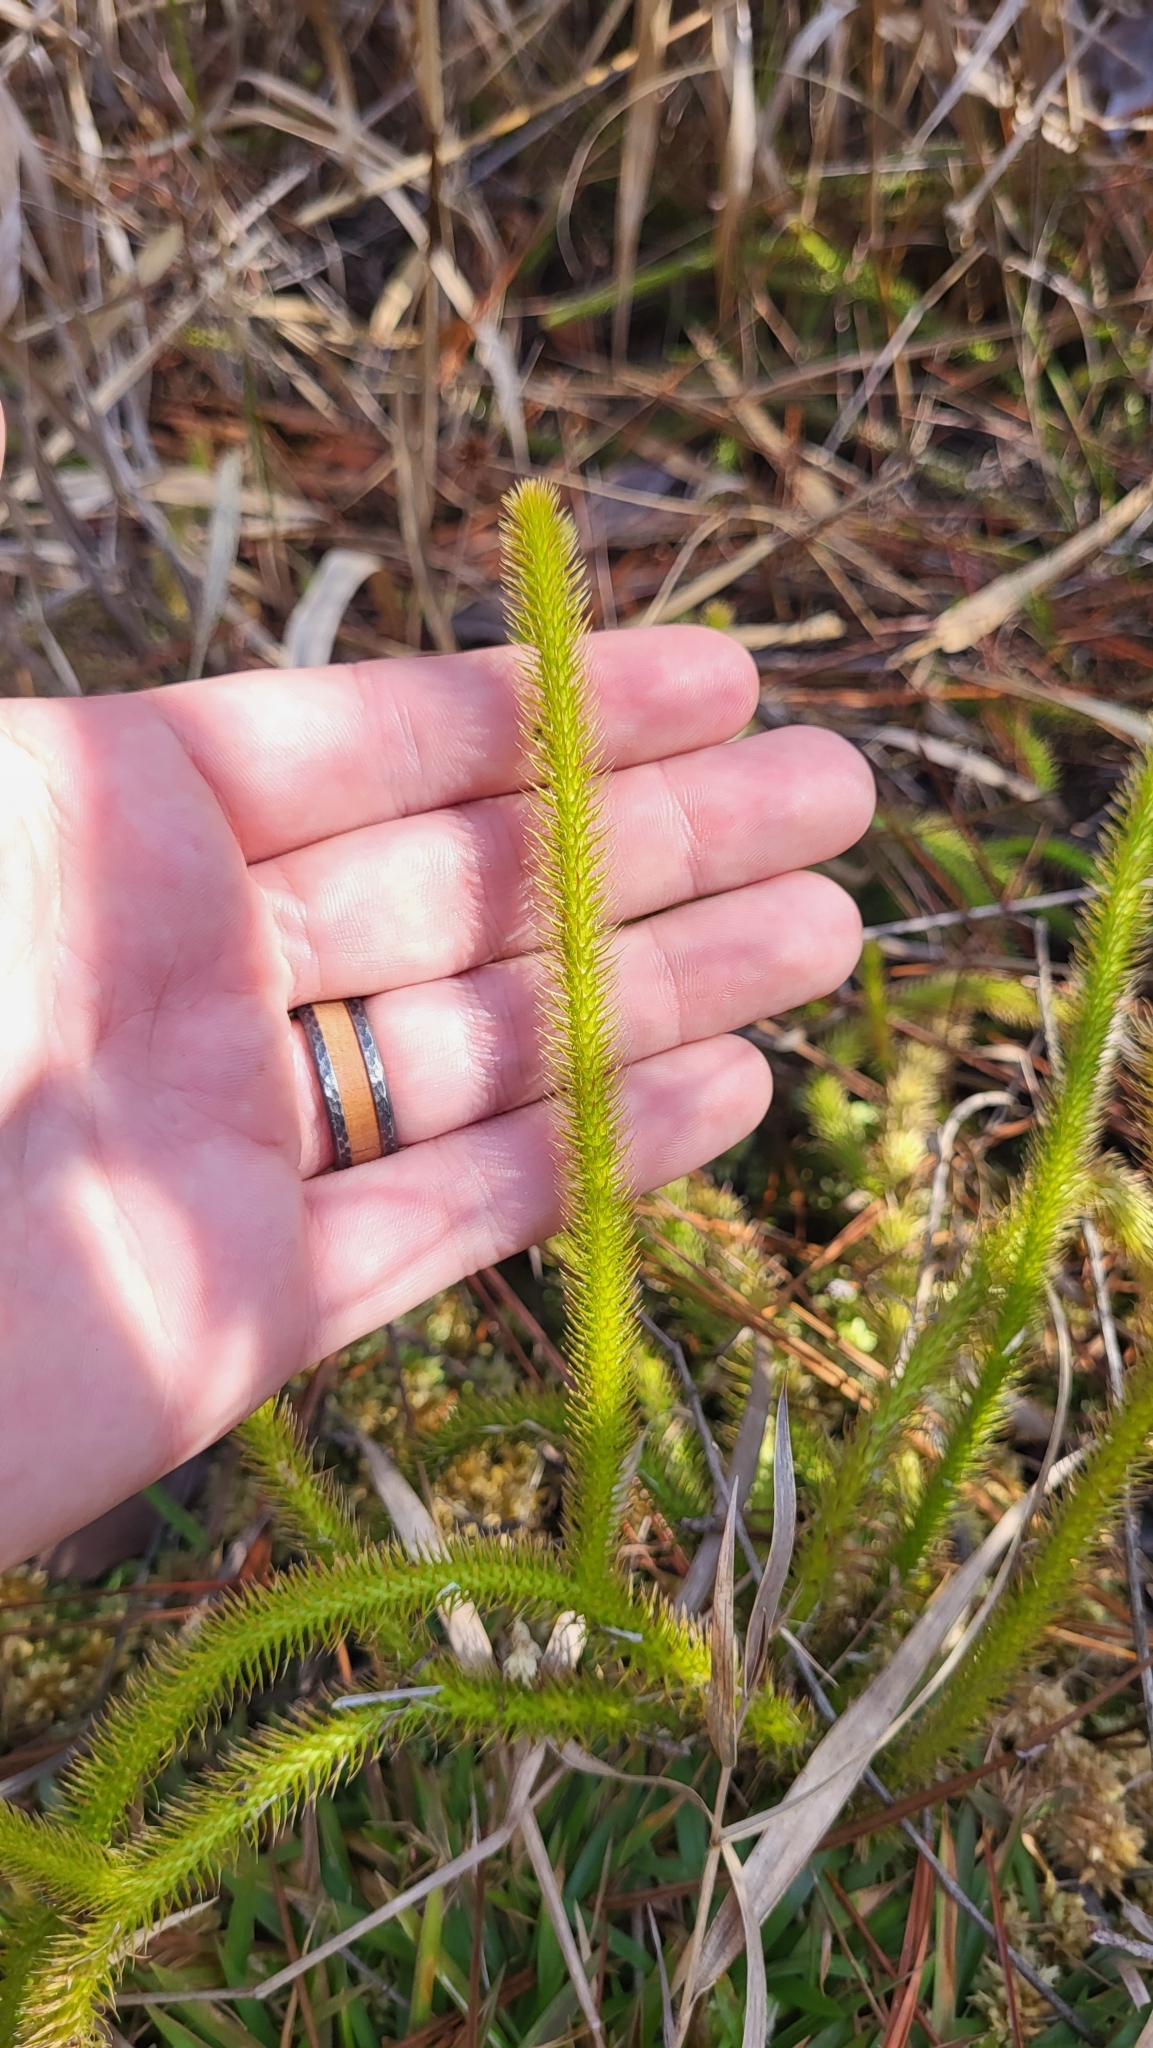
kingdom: Plantae
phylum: Tracheophyta
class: Lycopodiopsida
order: Lycopodiales
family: Lycopodiaceae
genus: Lycopodiella
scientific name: Lycopodiella alopecuroides
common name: Foxtail clubmoss
